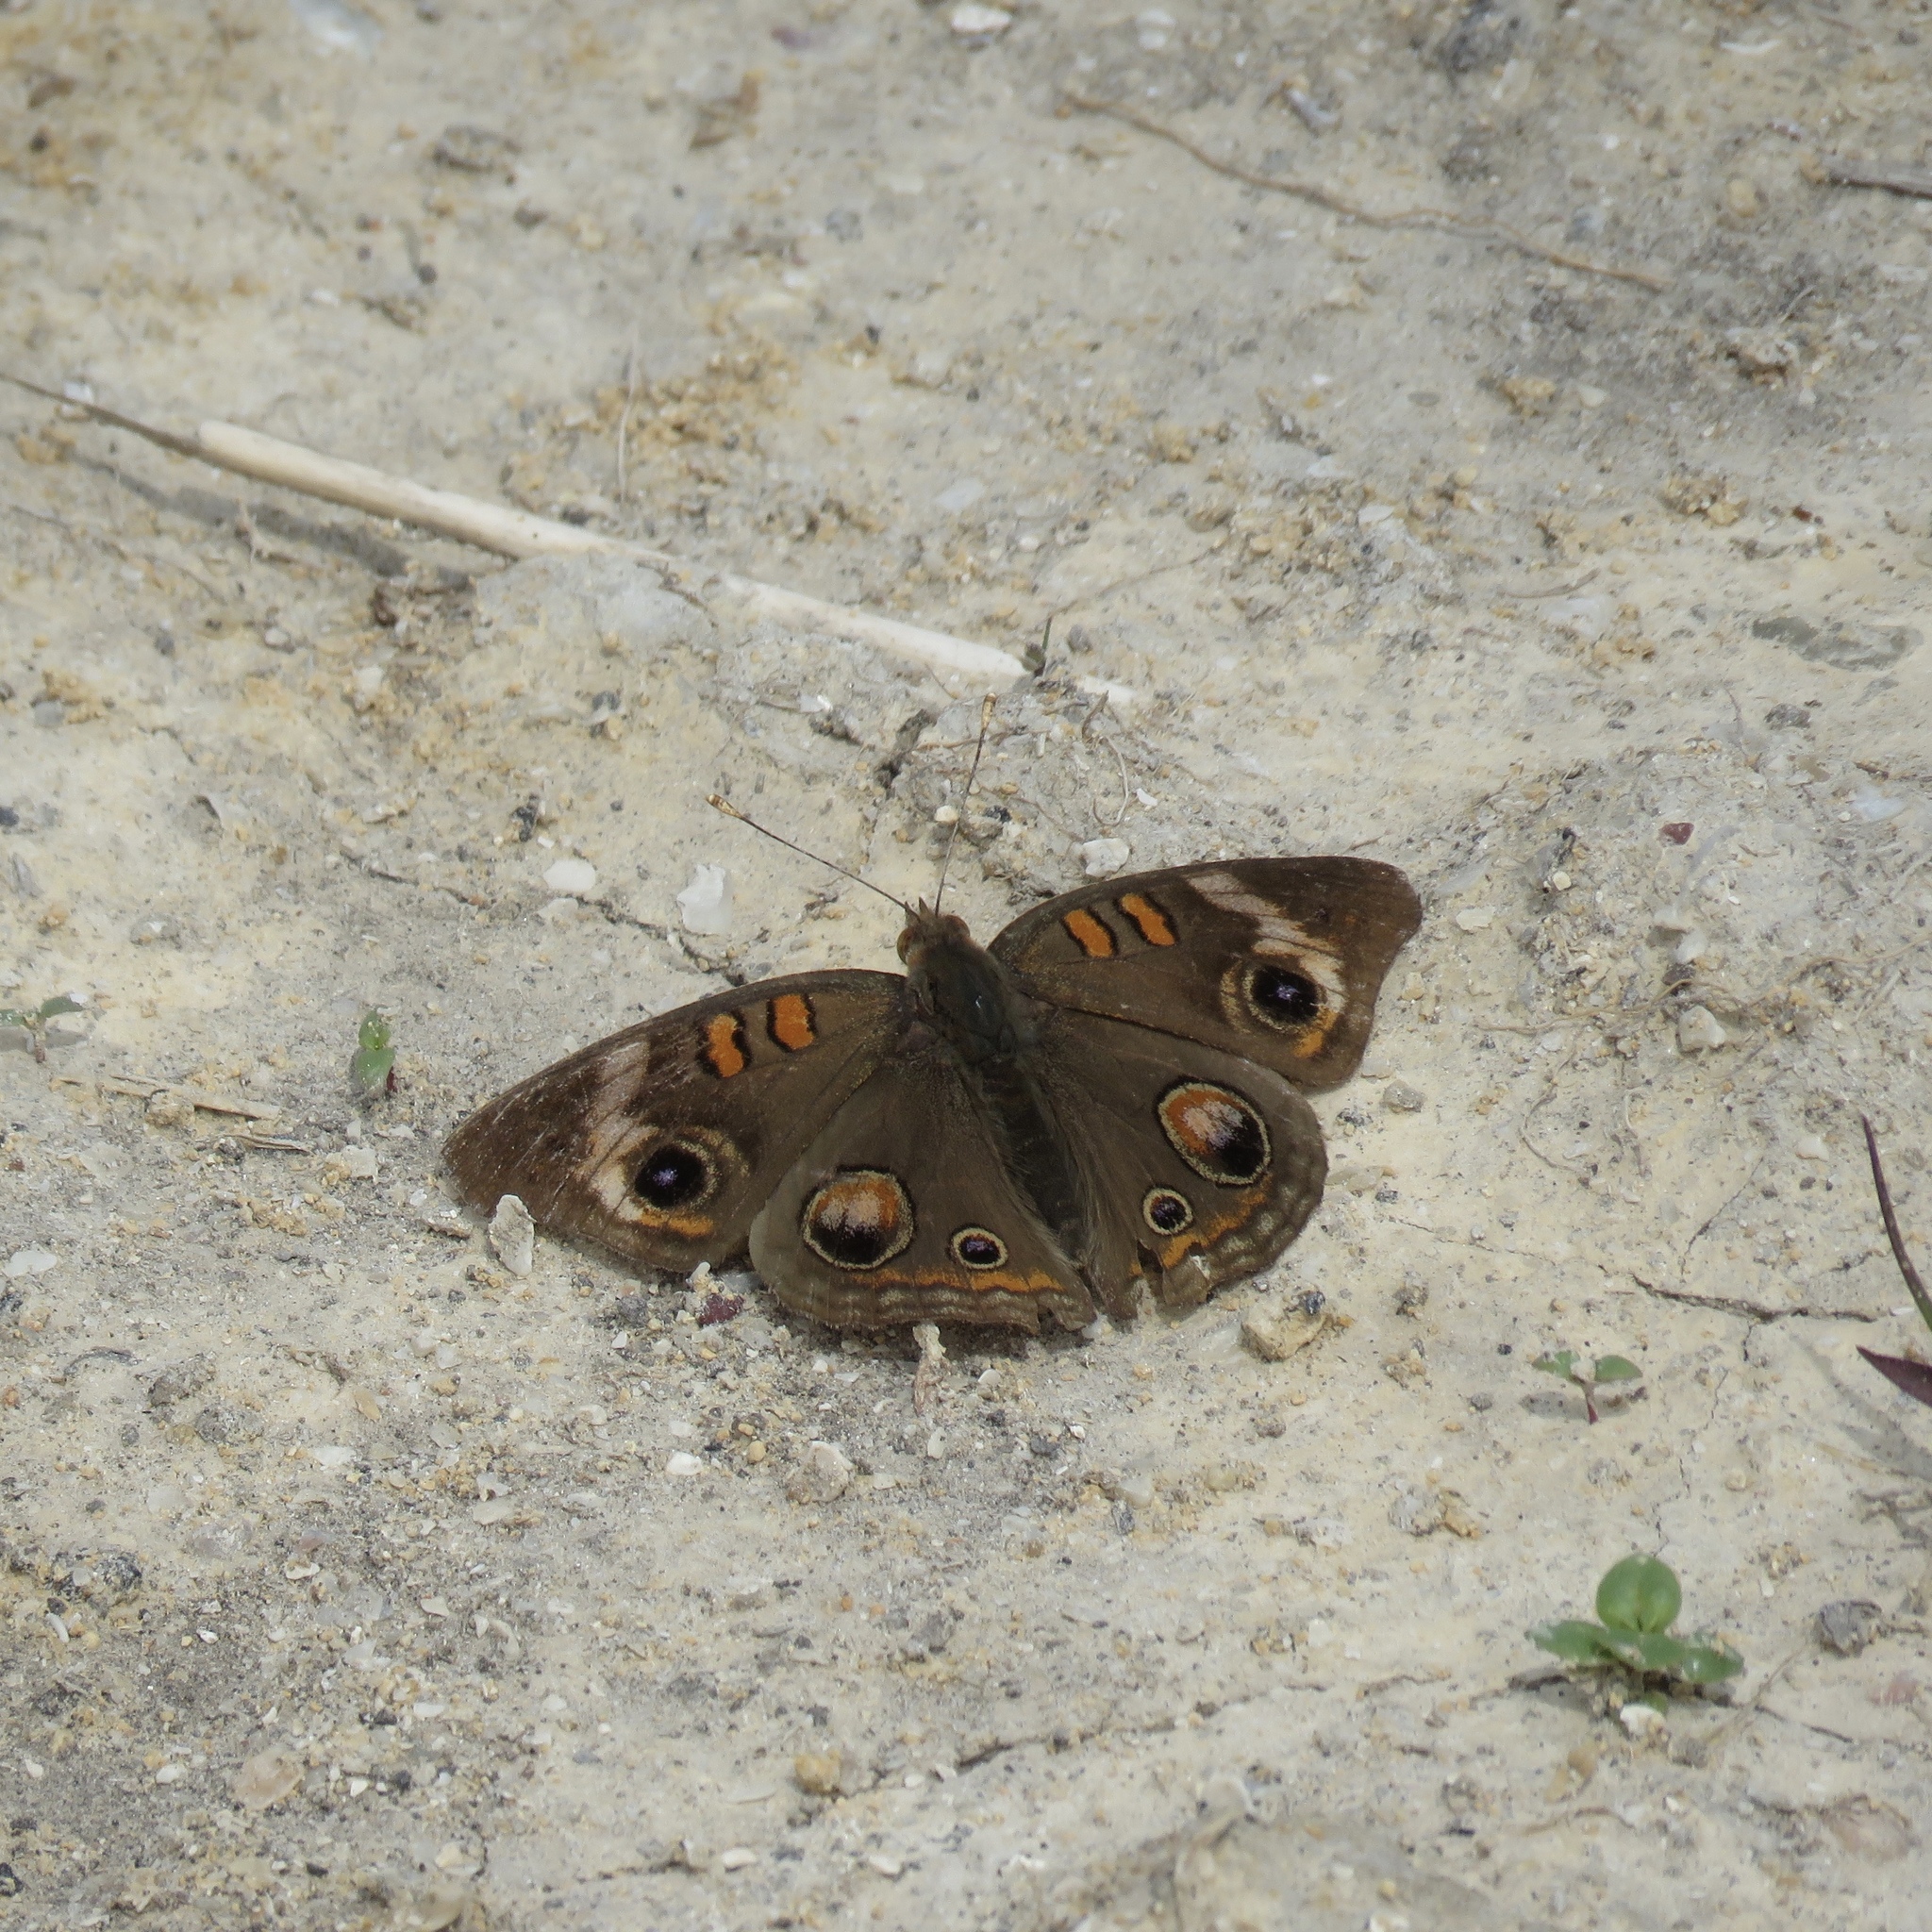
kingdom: Animalia
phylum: Arthropoda
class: Insecta
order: Lepidoptera
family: Nymphalidae
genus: Junonia
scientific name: Junonia coenia
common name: Common buckeye
